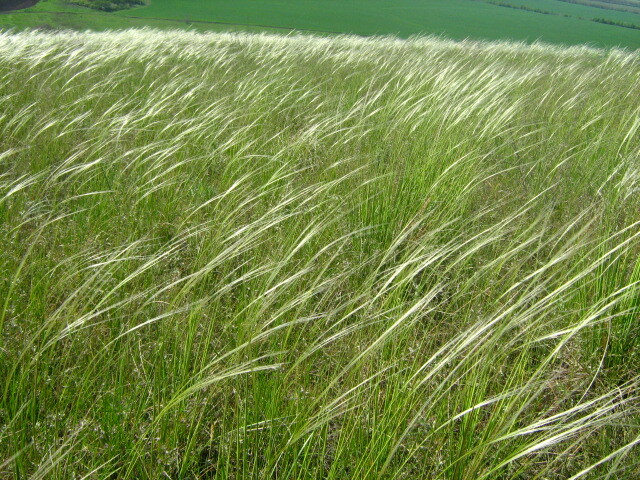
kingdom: Plantae
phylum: Tracheophyta
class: Liliopsida
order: Poales
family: Poaceae
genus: Stipa
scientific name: Stipa pennata
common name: European feather grass
